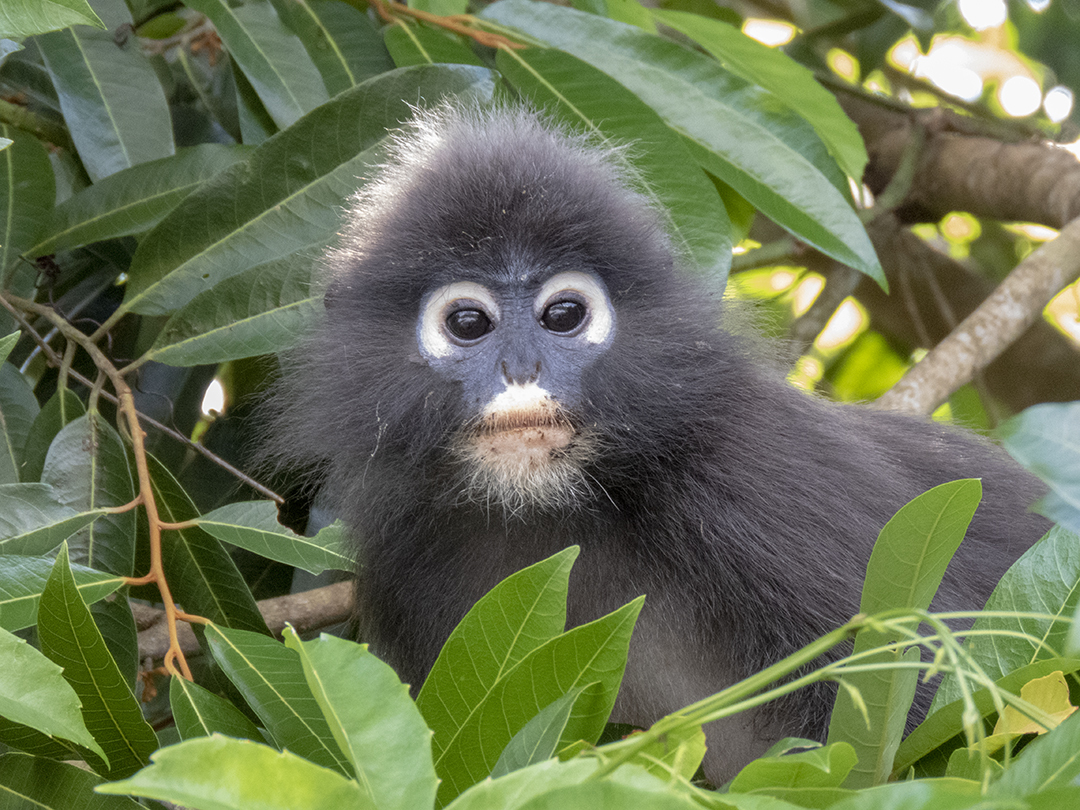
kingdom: Animalia
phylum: Chordata
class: Mammalia
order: Primates
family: Cercopithecidae
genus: Trachypithecus
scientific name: Trachypithecus obscurus
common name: Dusky leaf-monkey
